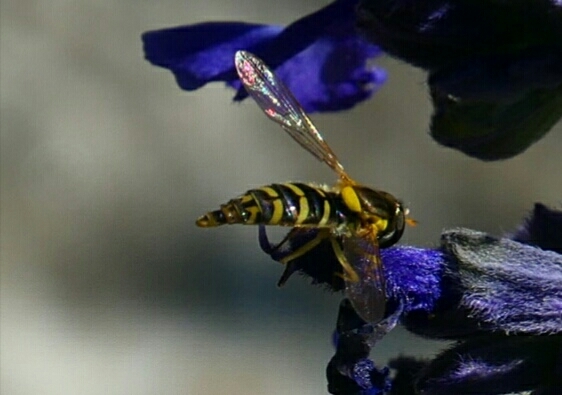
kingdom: Animalia
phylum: Arthropoda
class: Insecta
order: Diptera
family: Syrphidae
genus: Sphaerophoria
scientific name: Sphaerophoria
